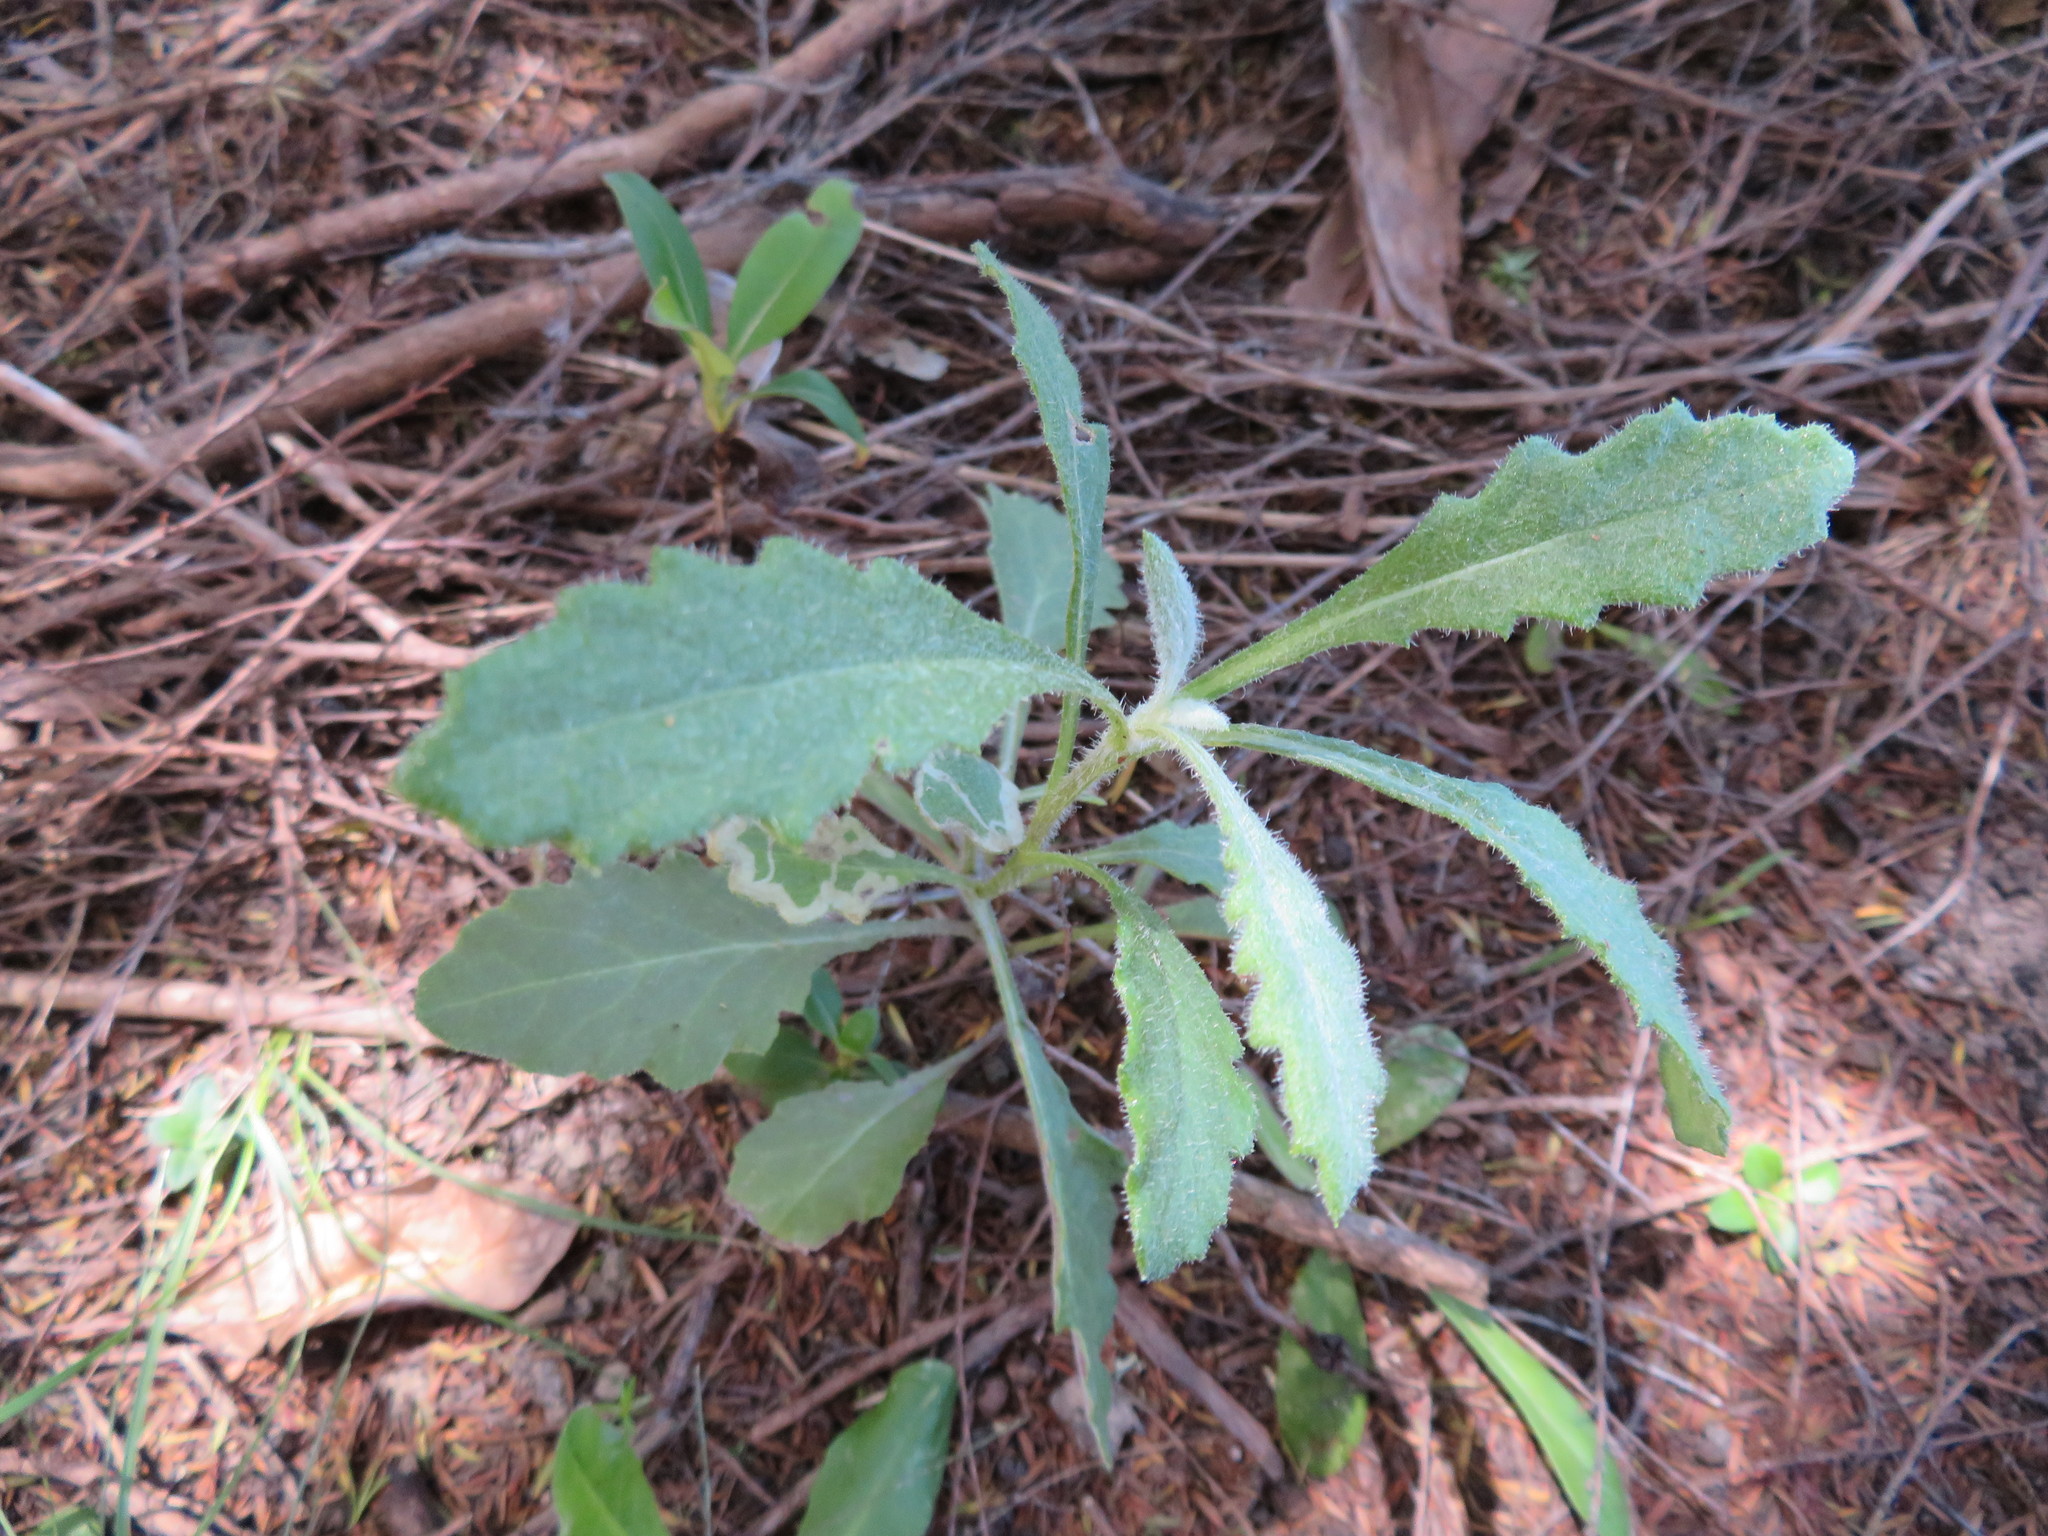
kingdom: Plantae
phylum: Tracheophyta
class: Magnoliopsida
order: Asterales
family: Asteraceae
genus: Senecio
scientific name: Senecio glomeratus
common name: Cutleaf burnweed
